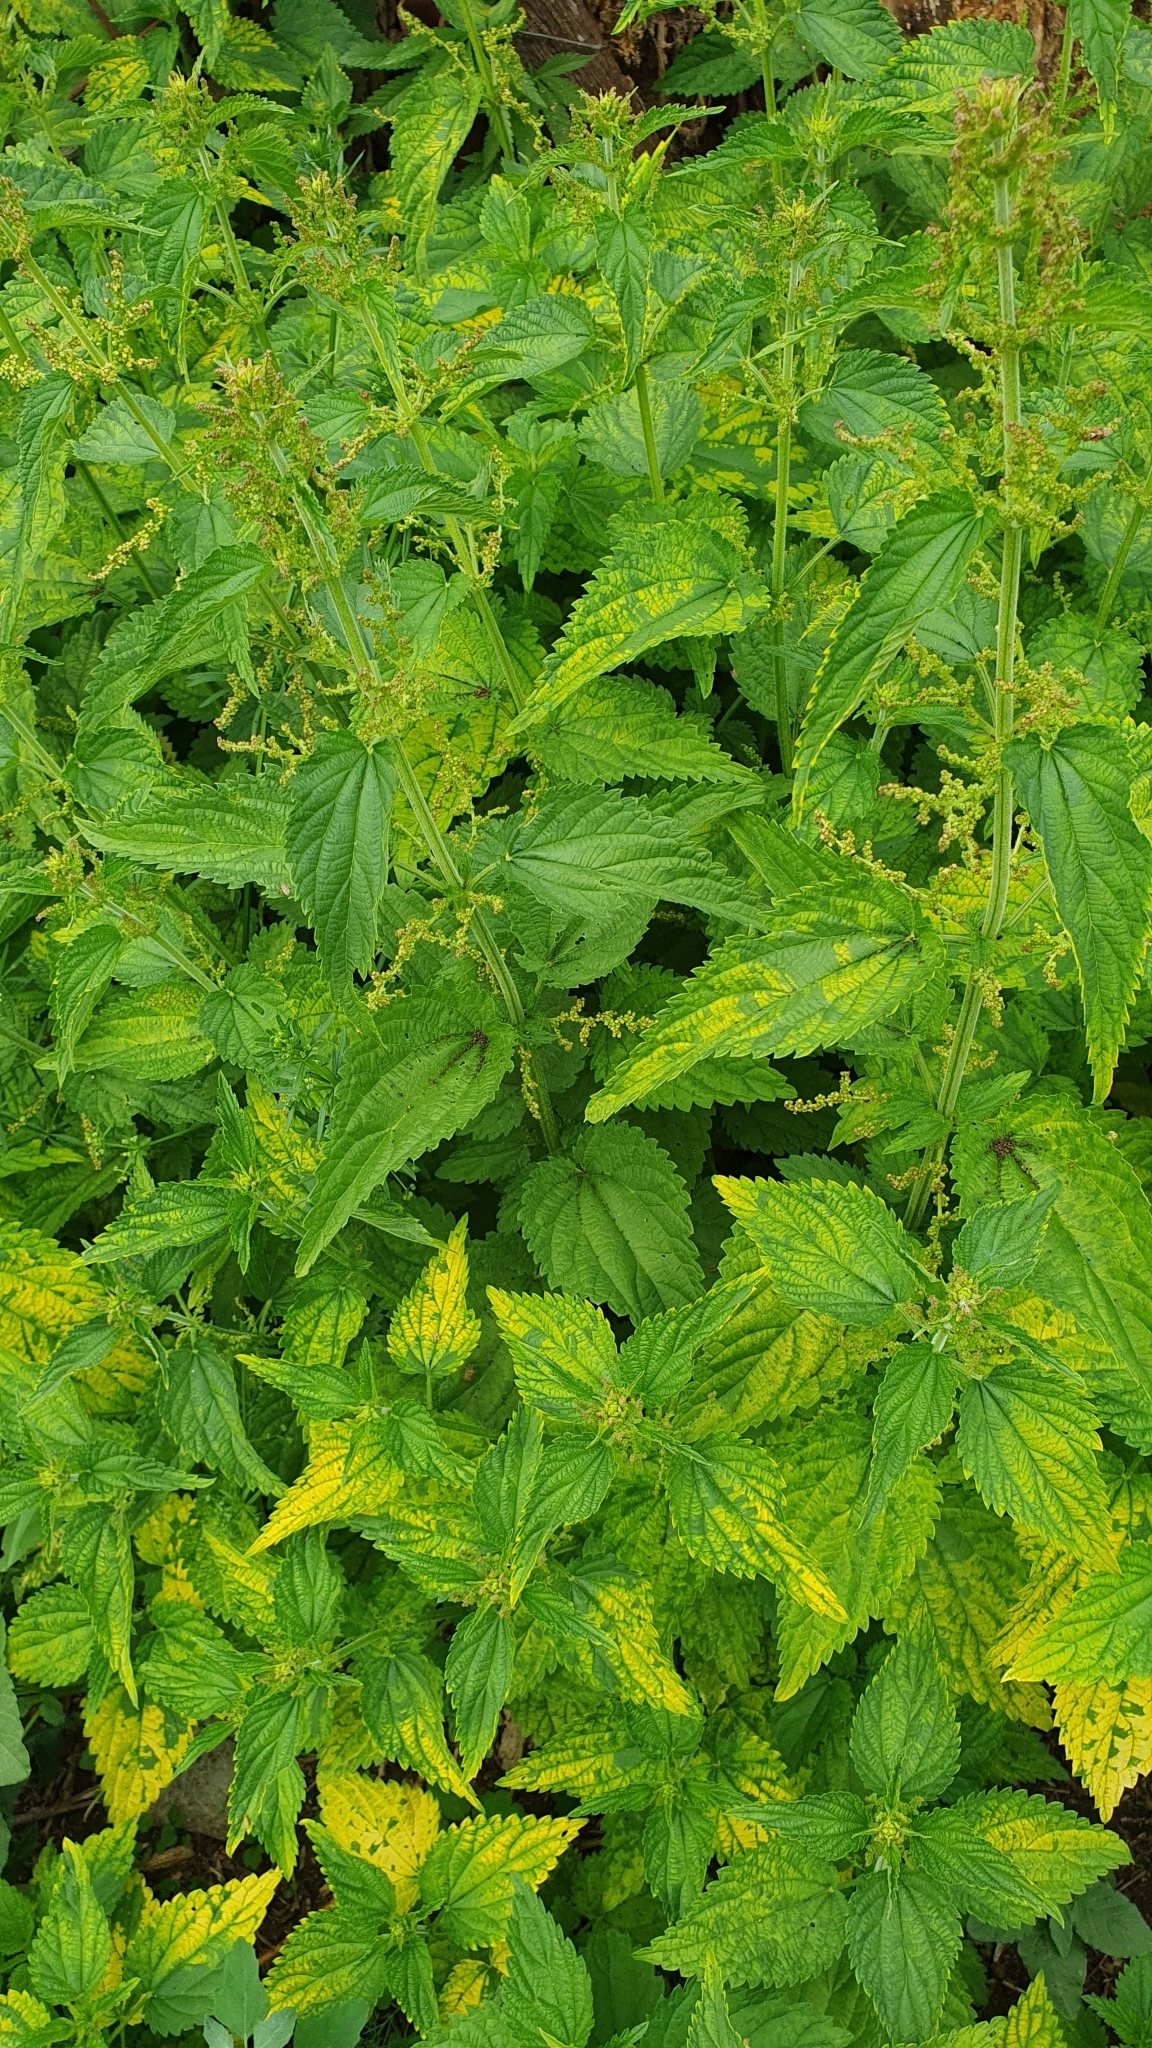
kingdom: Plantae
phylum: Tracheophyta
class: Magnoliopsida
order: Rosales
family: Urticaceae
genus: Urtica
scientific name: Urtica dioica
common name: Common nettle
